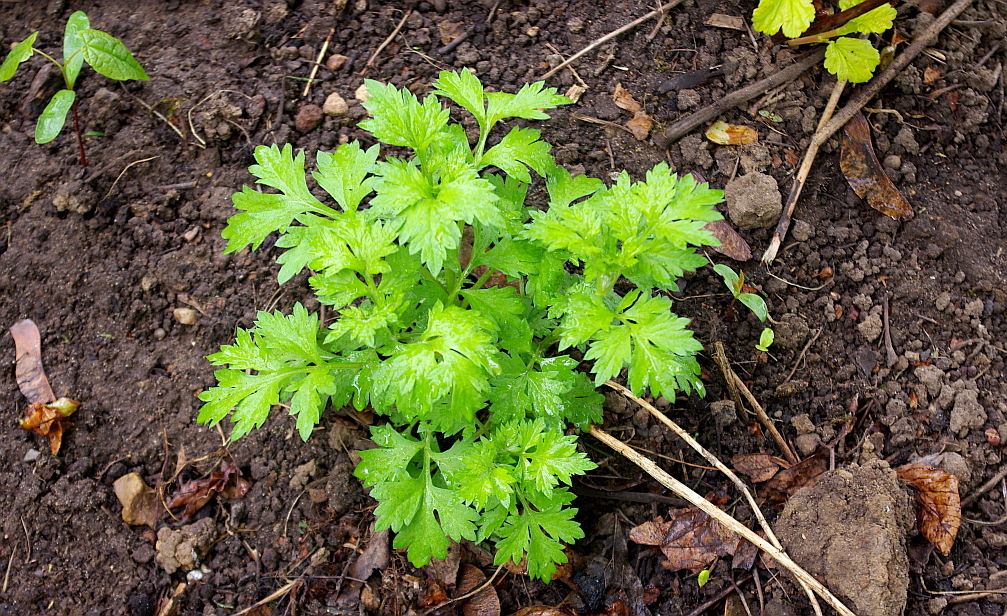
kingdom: Plantae
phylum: Tracheophyta
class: Magnoliopsida
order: Asterales
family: Asteraceae
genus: Artemisia
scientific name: Artemisia vulgaris
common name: Mugwort
